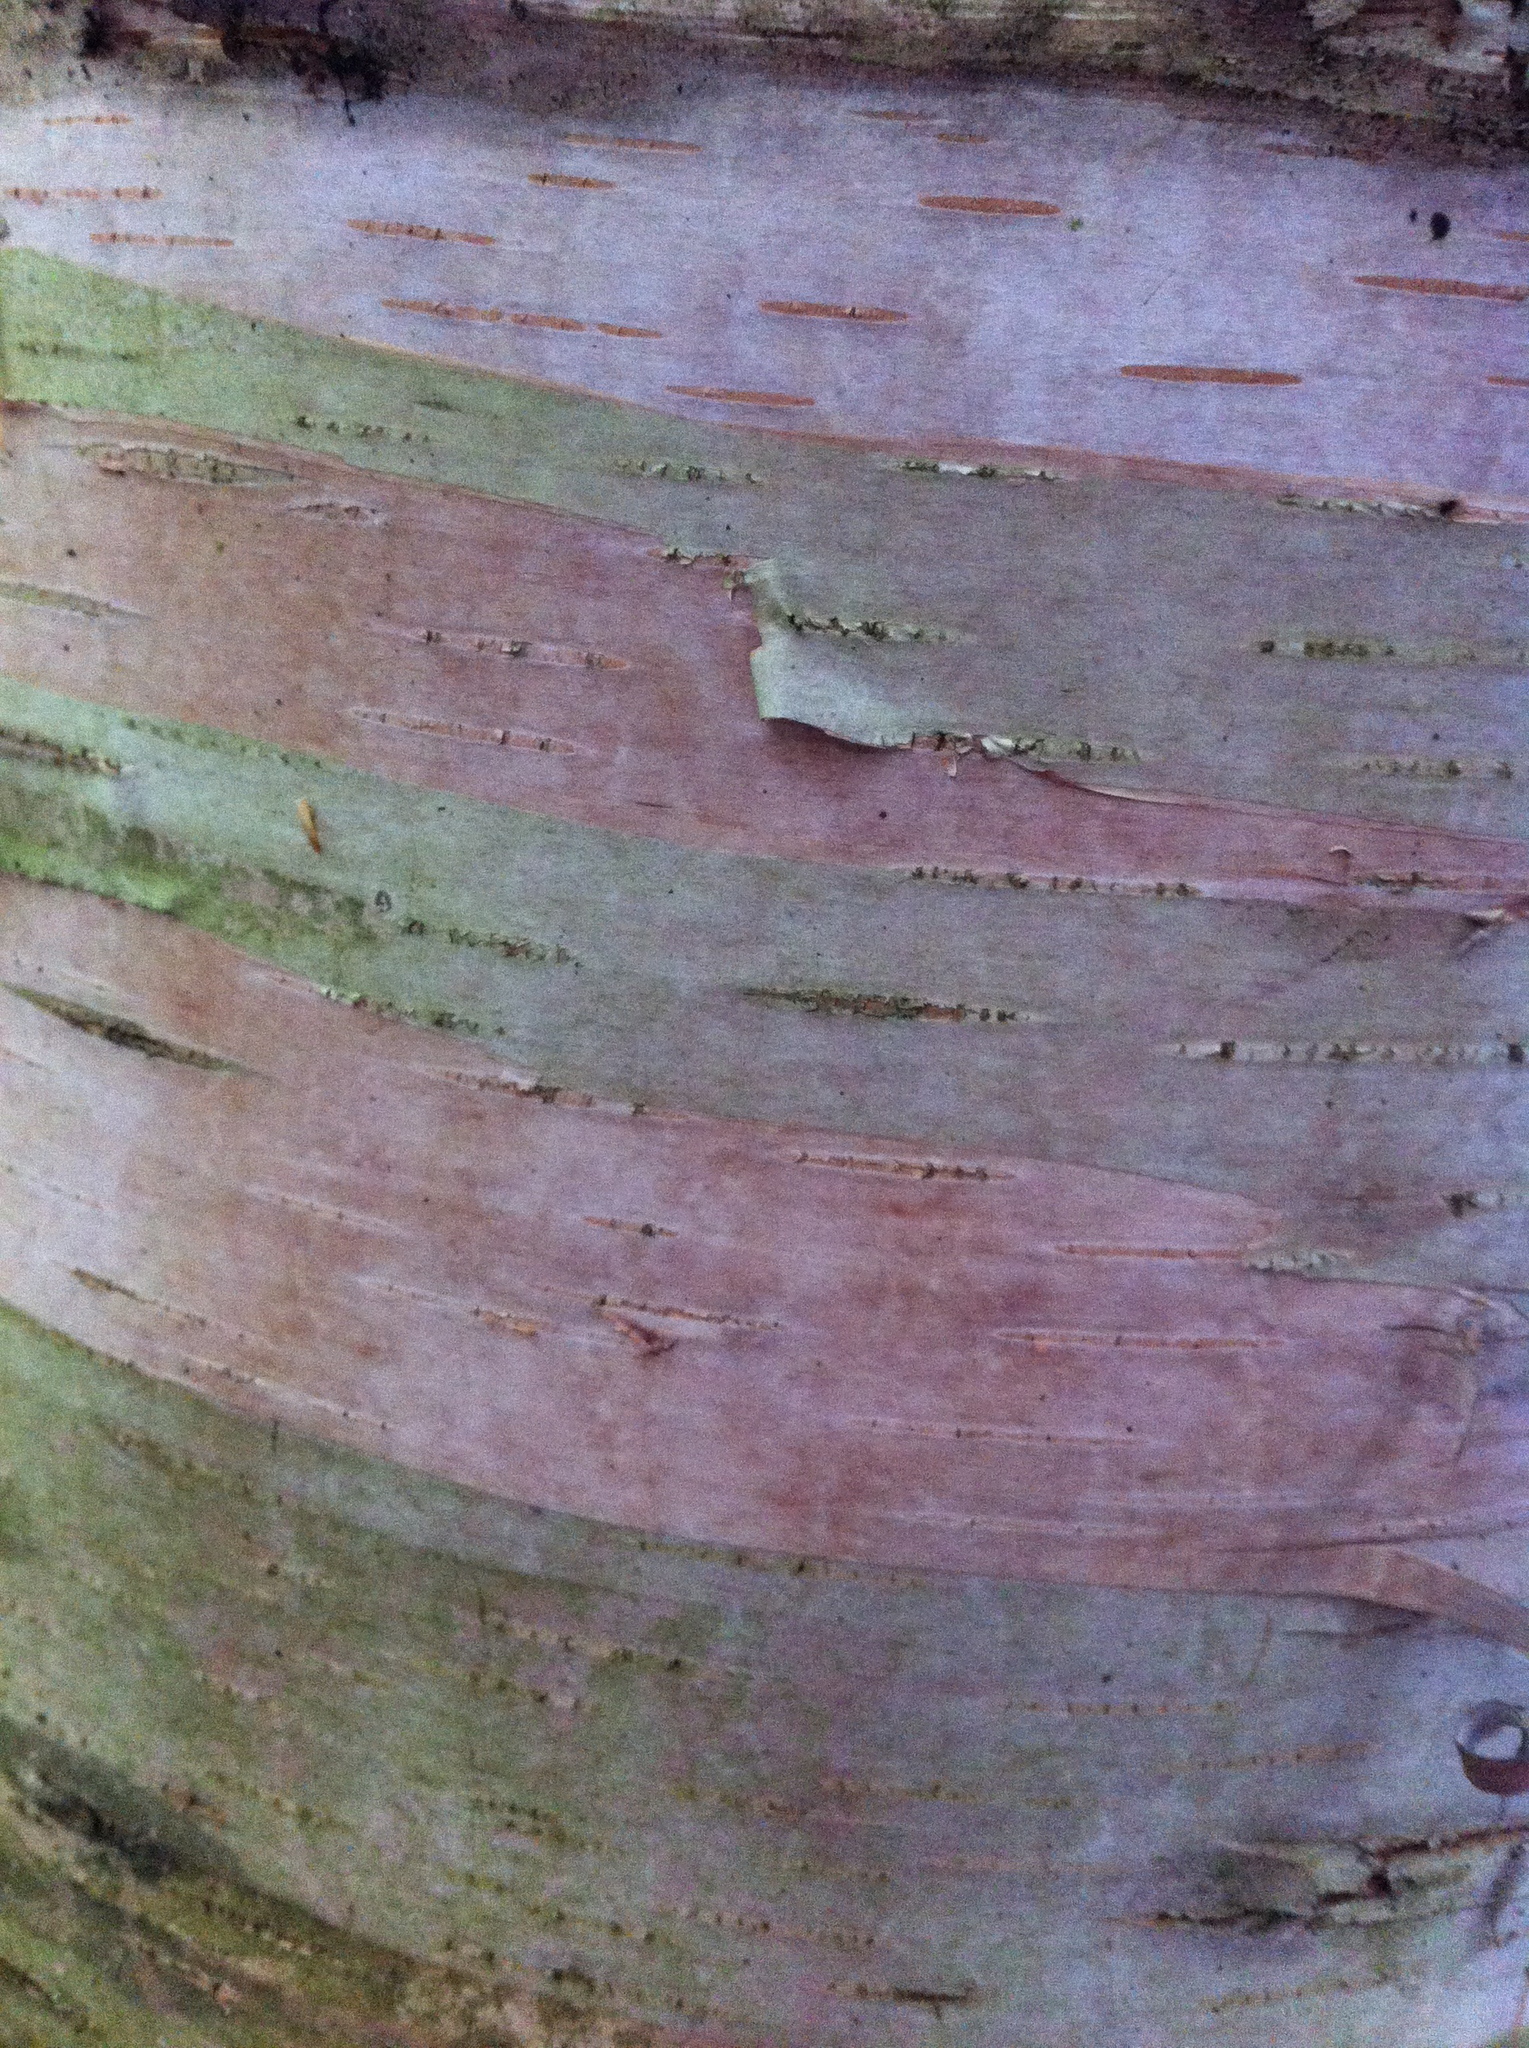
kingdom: Plantae
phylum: Tracheophyta
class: Magnoliopsida
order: Fagales
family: Betulaceae
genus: Betula
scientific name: Betula cordifolia
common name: Mountain white birch
